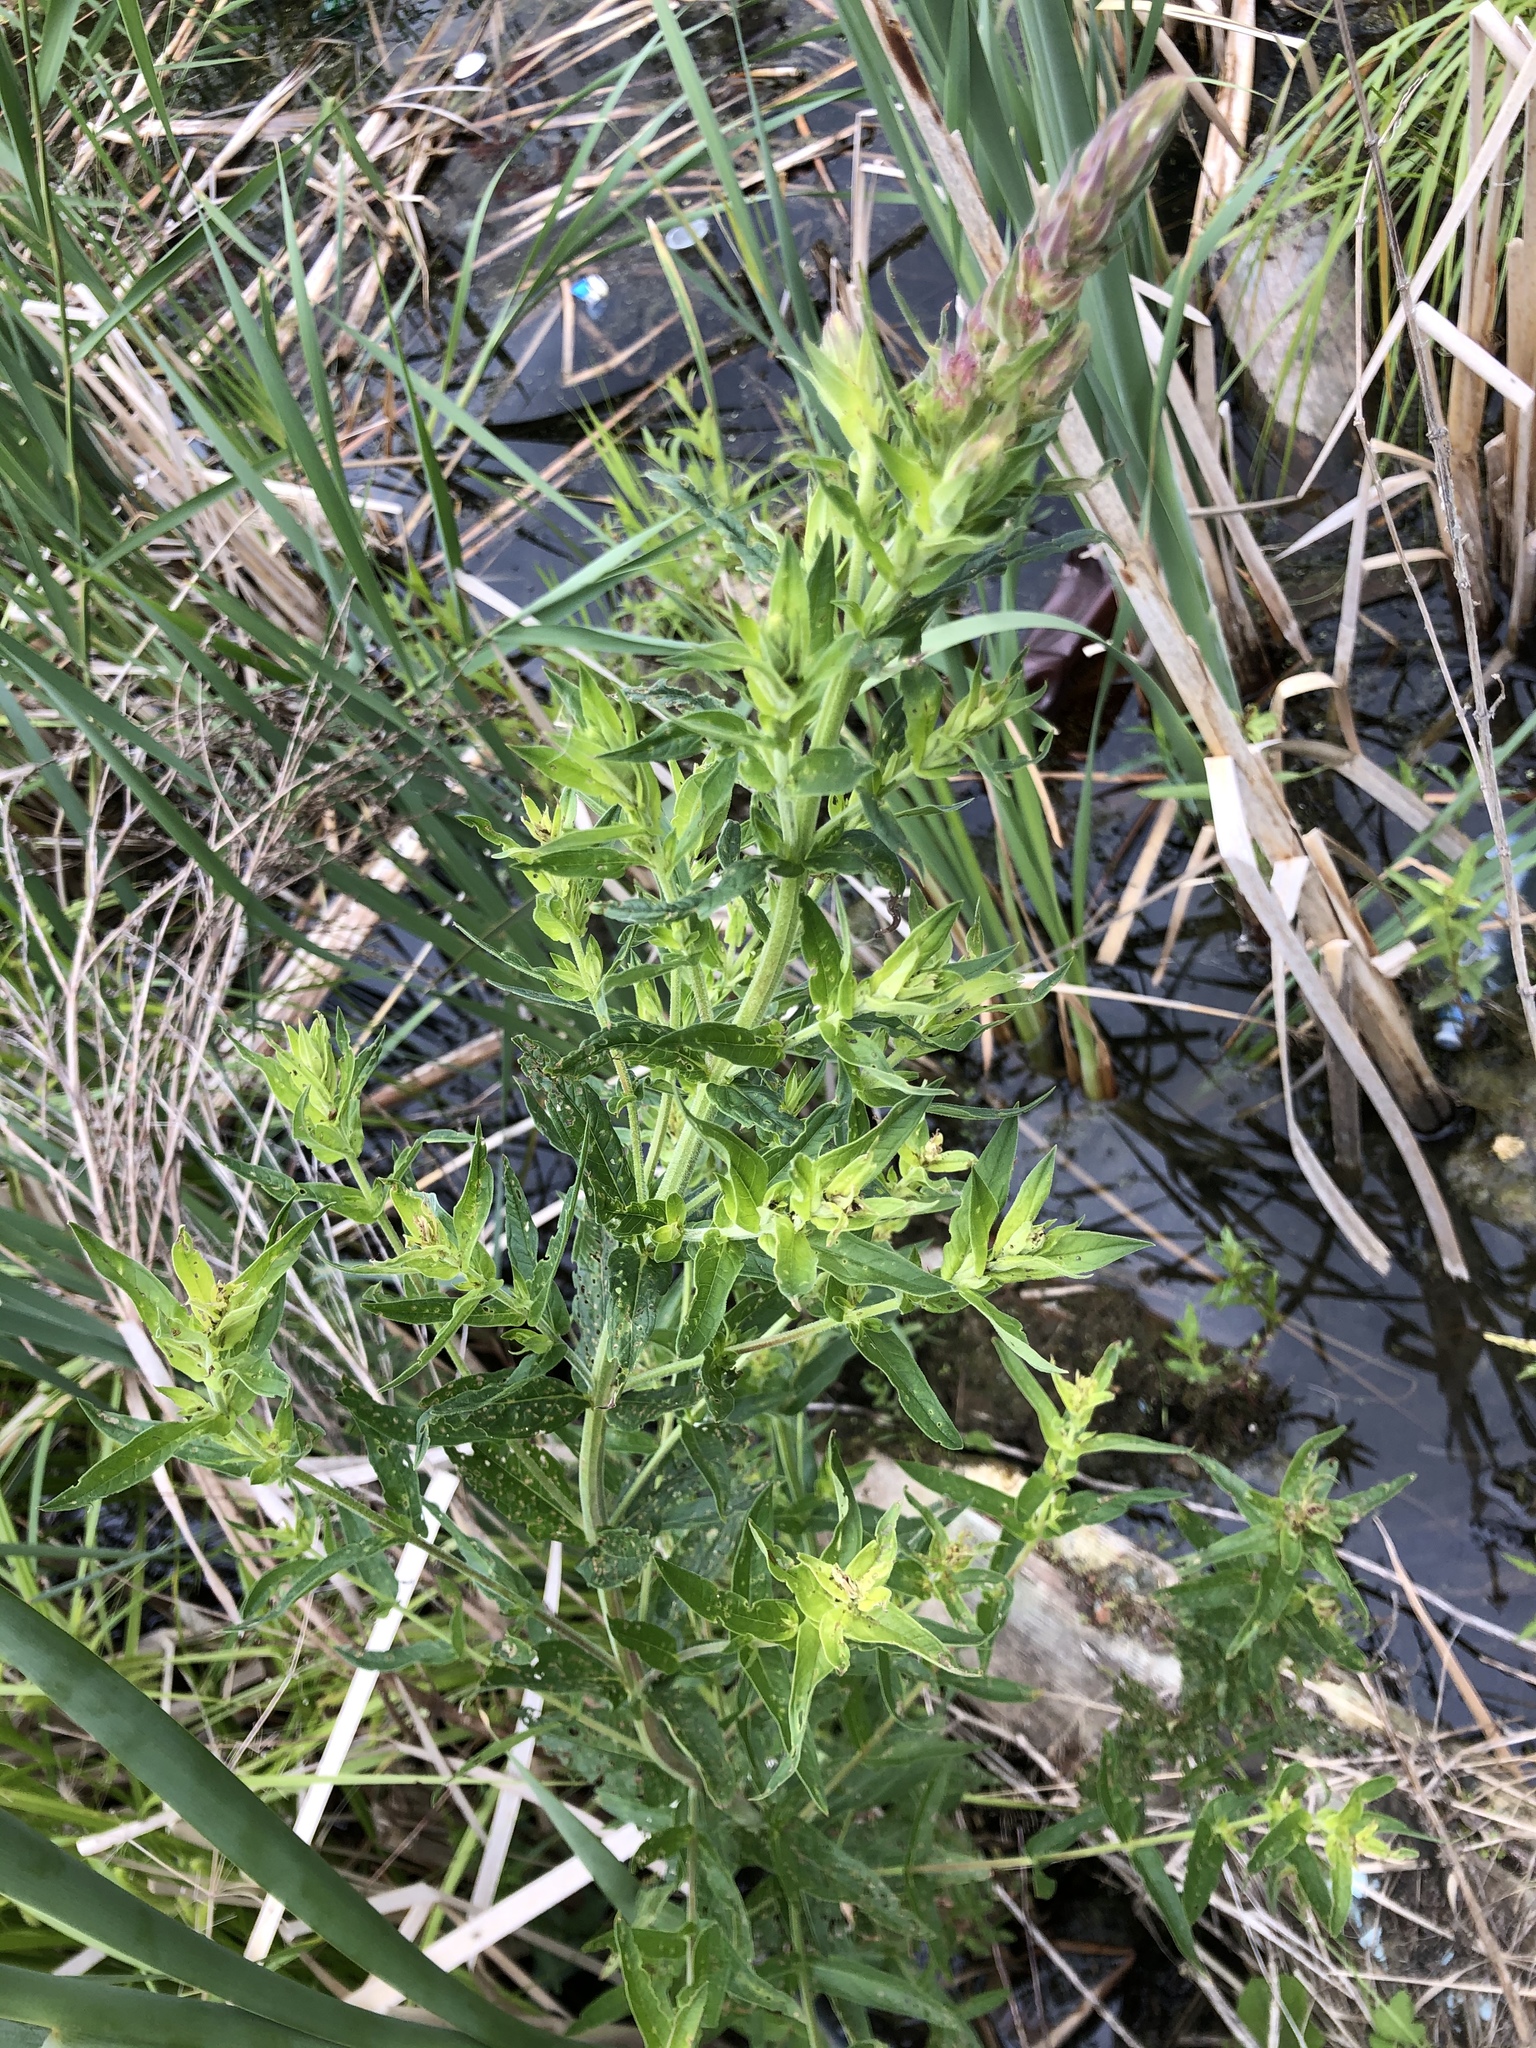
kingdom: Plantae
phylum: Tracheophyta
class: Magnoliopsida
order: Myrtales
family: Lythraceae
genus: Lythrum
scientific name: Lythrum salicaria
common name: Purple loosestrife
